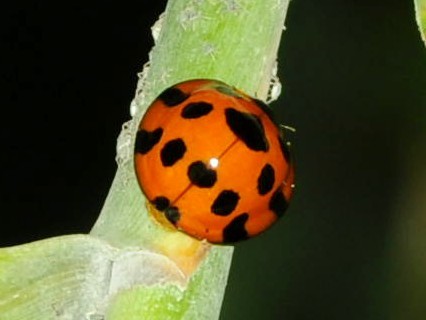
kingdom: Animalia
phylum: Arthropoda
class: Insecta
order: Coleoptera
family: Coccinellidae
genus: Synonycha
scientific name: Synonycha grandis
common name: Lady beetle
